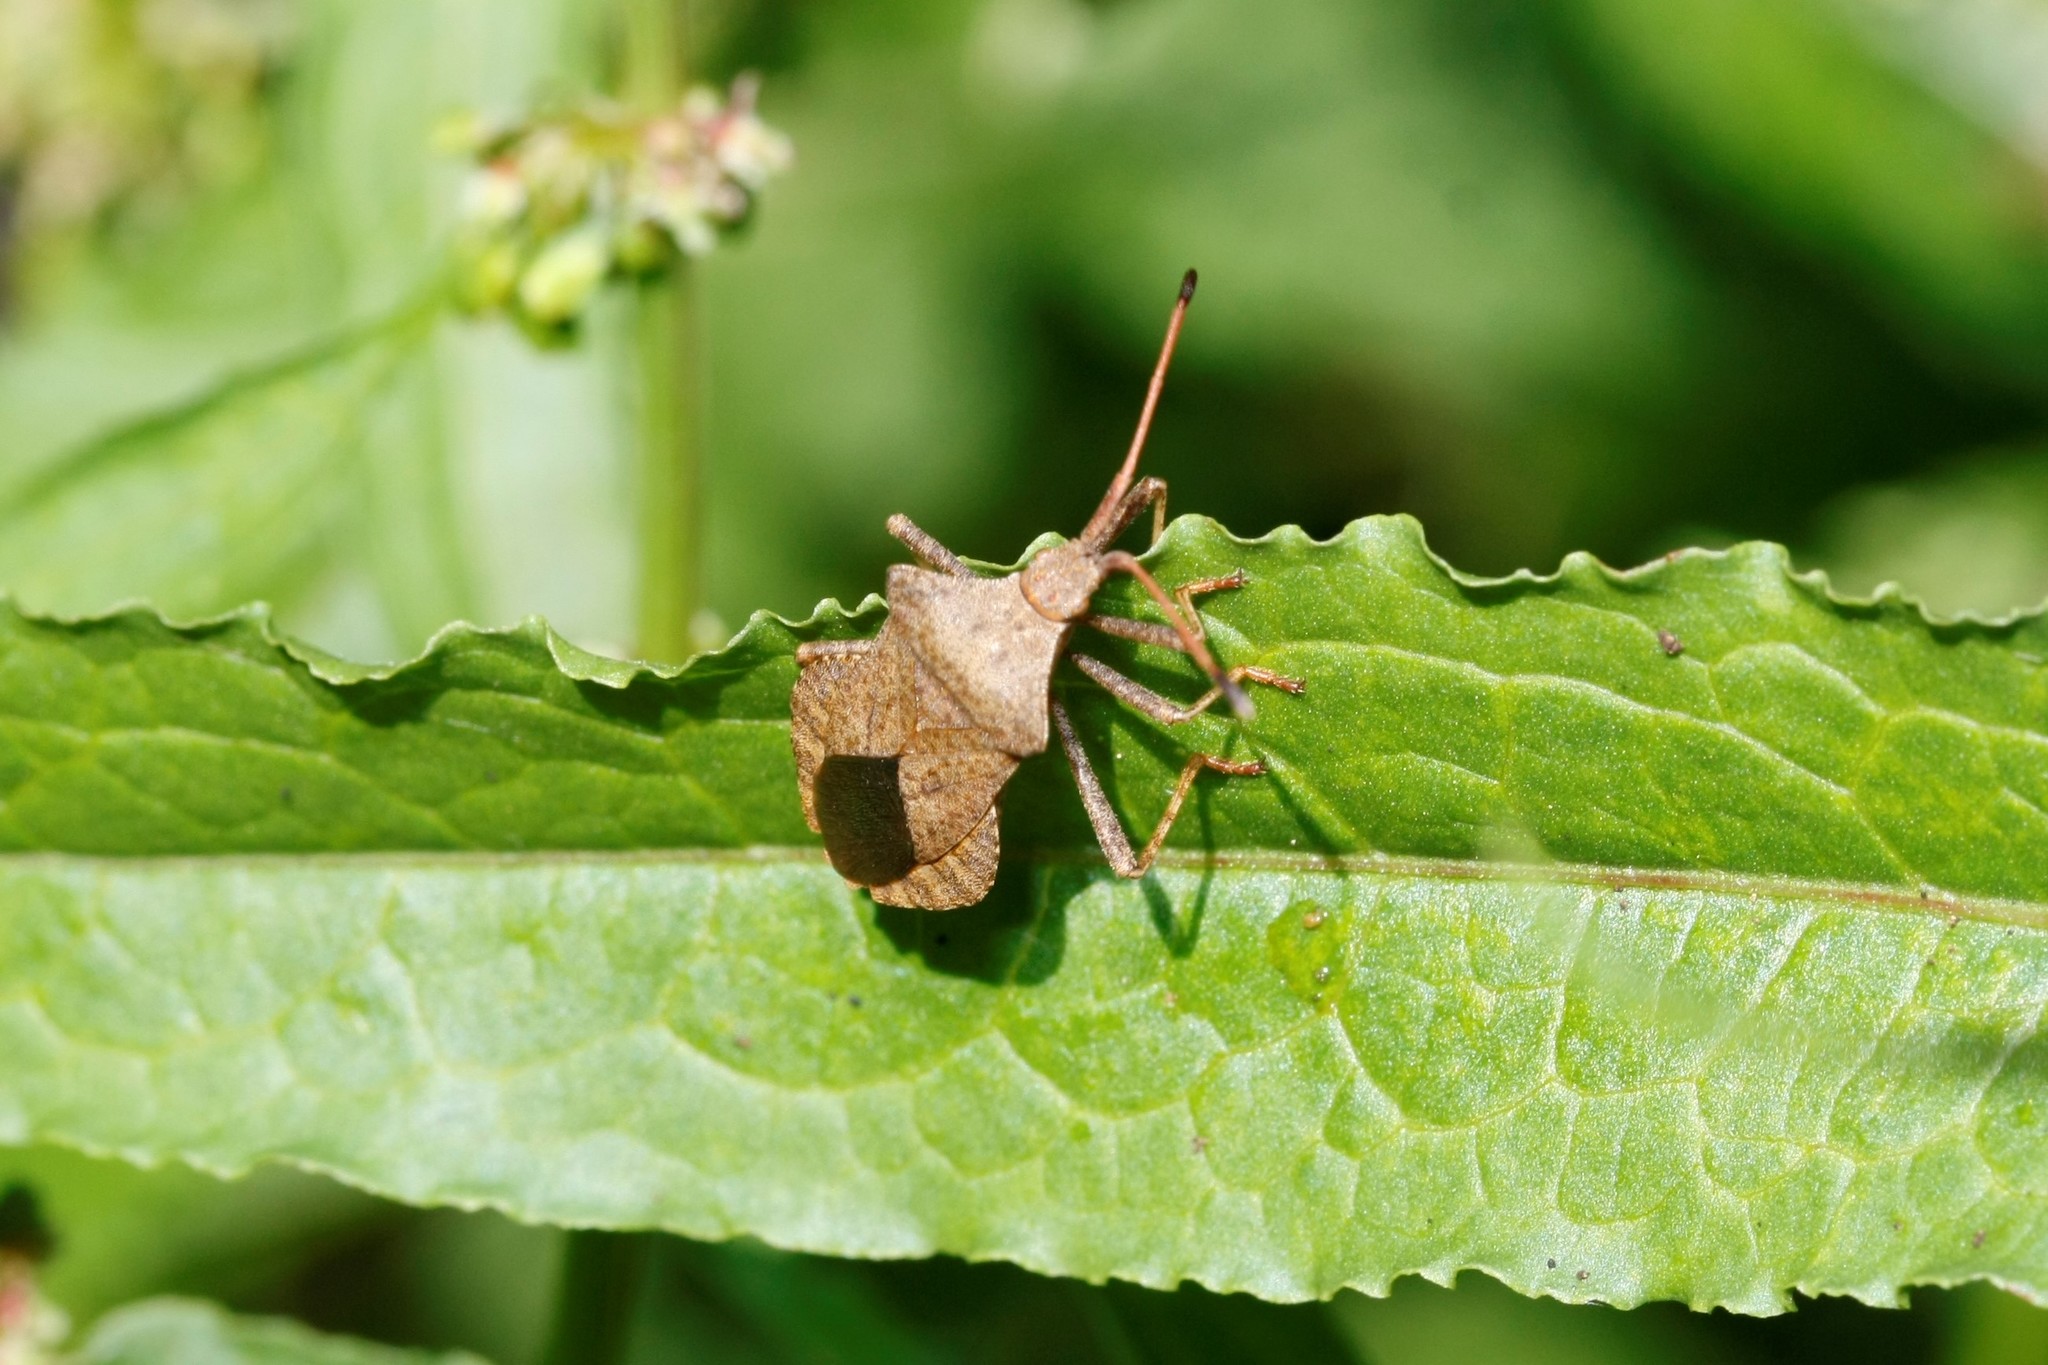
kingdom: Animalia
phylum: Arthropoda
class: Insecta
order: Hemiptera
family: Coreidae
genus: Coreus
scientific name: Coreus marginatus
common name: Dock bug
